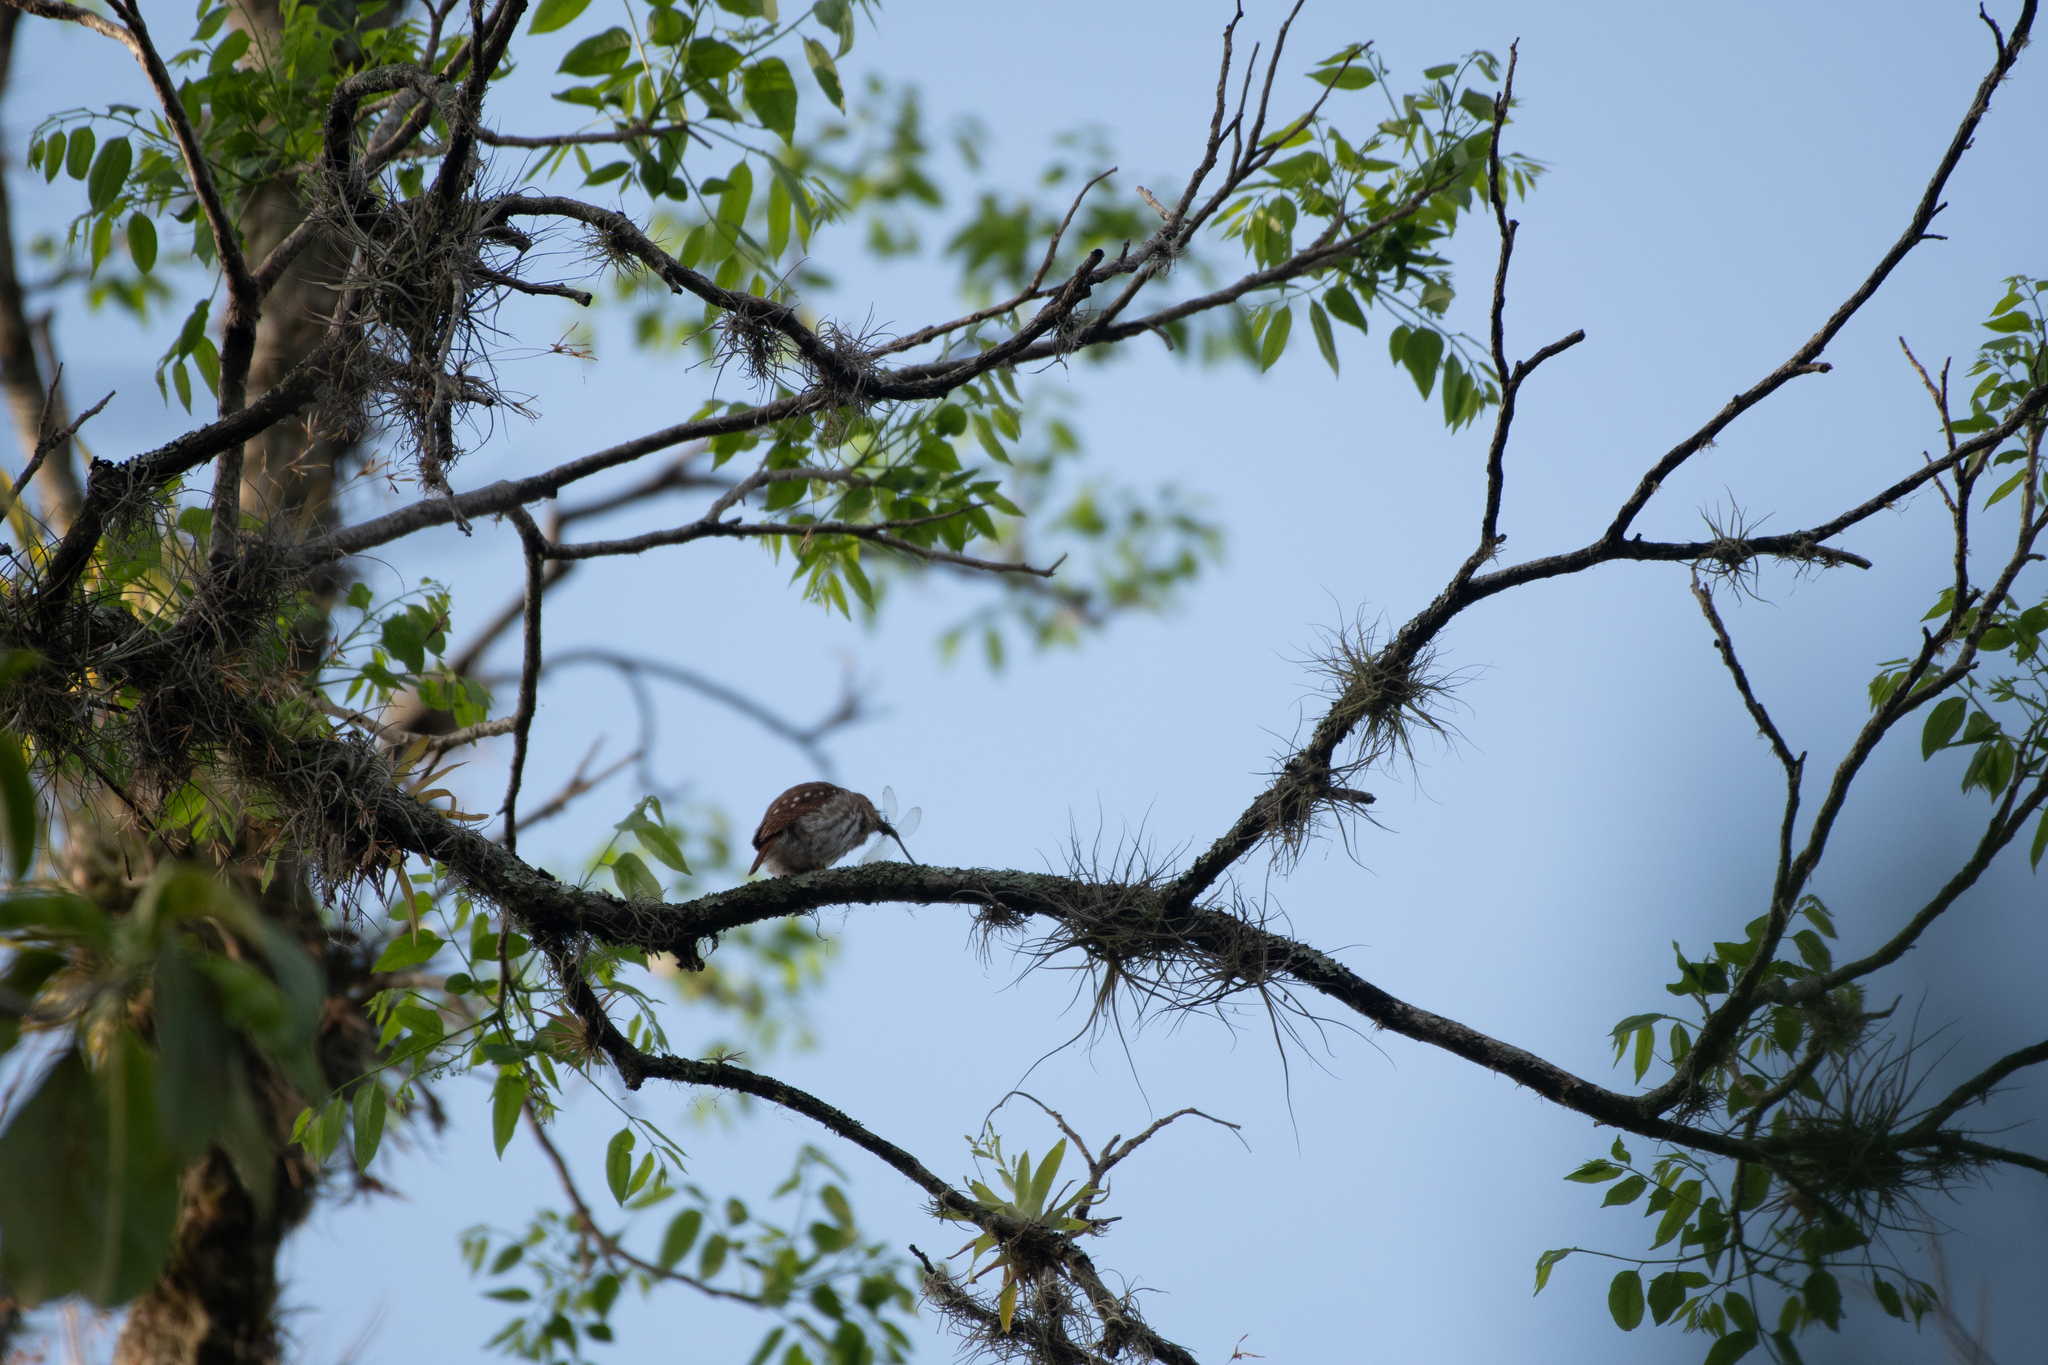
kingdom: Animalia
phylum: Chordata
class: Aves
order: Strigiformes
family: Strigidae
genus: Glaucidium
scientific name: Glaucidium brasilianum
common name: Ferruginous pygmy-owl
